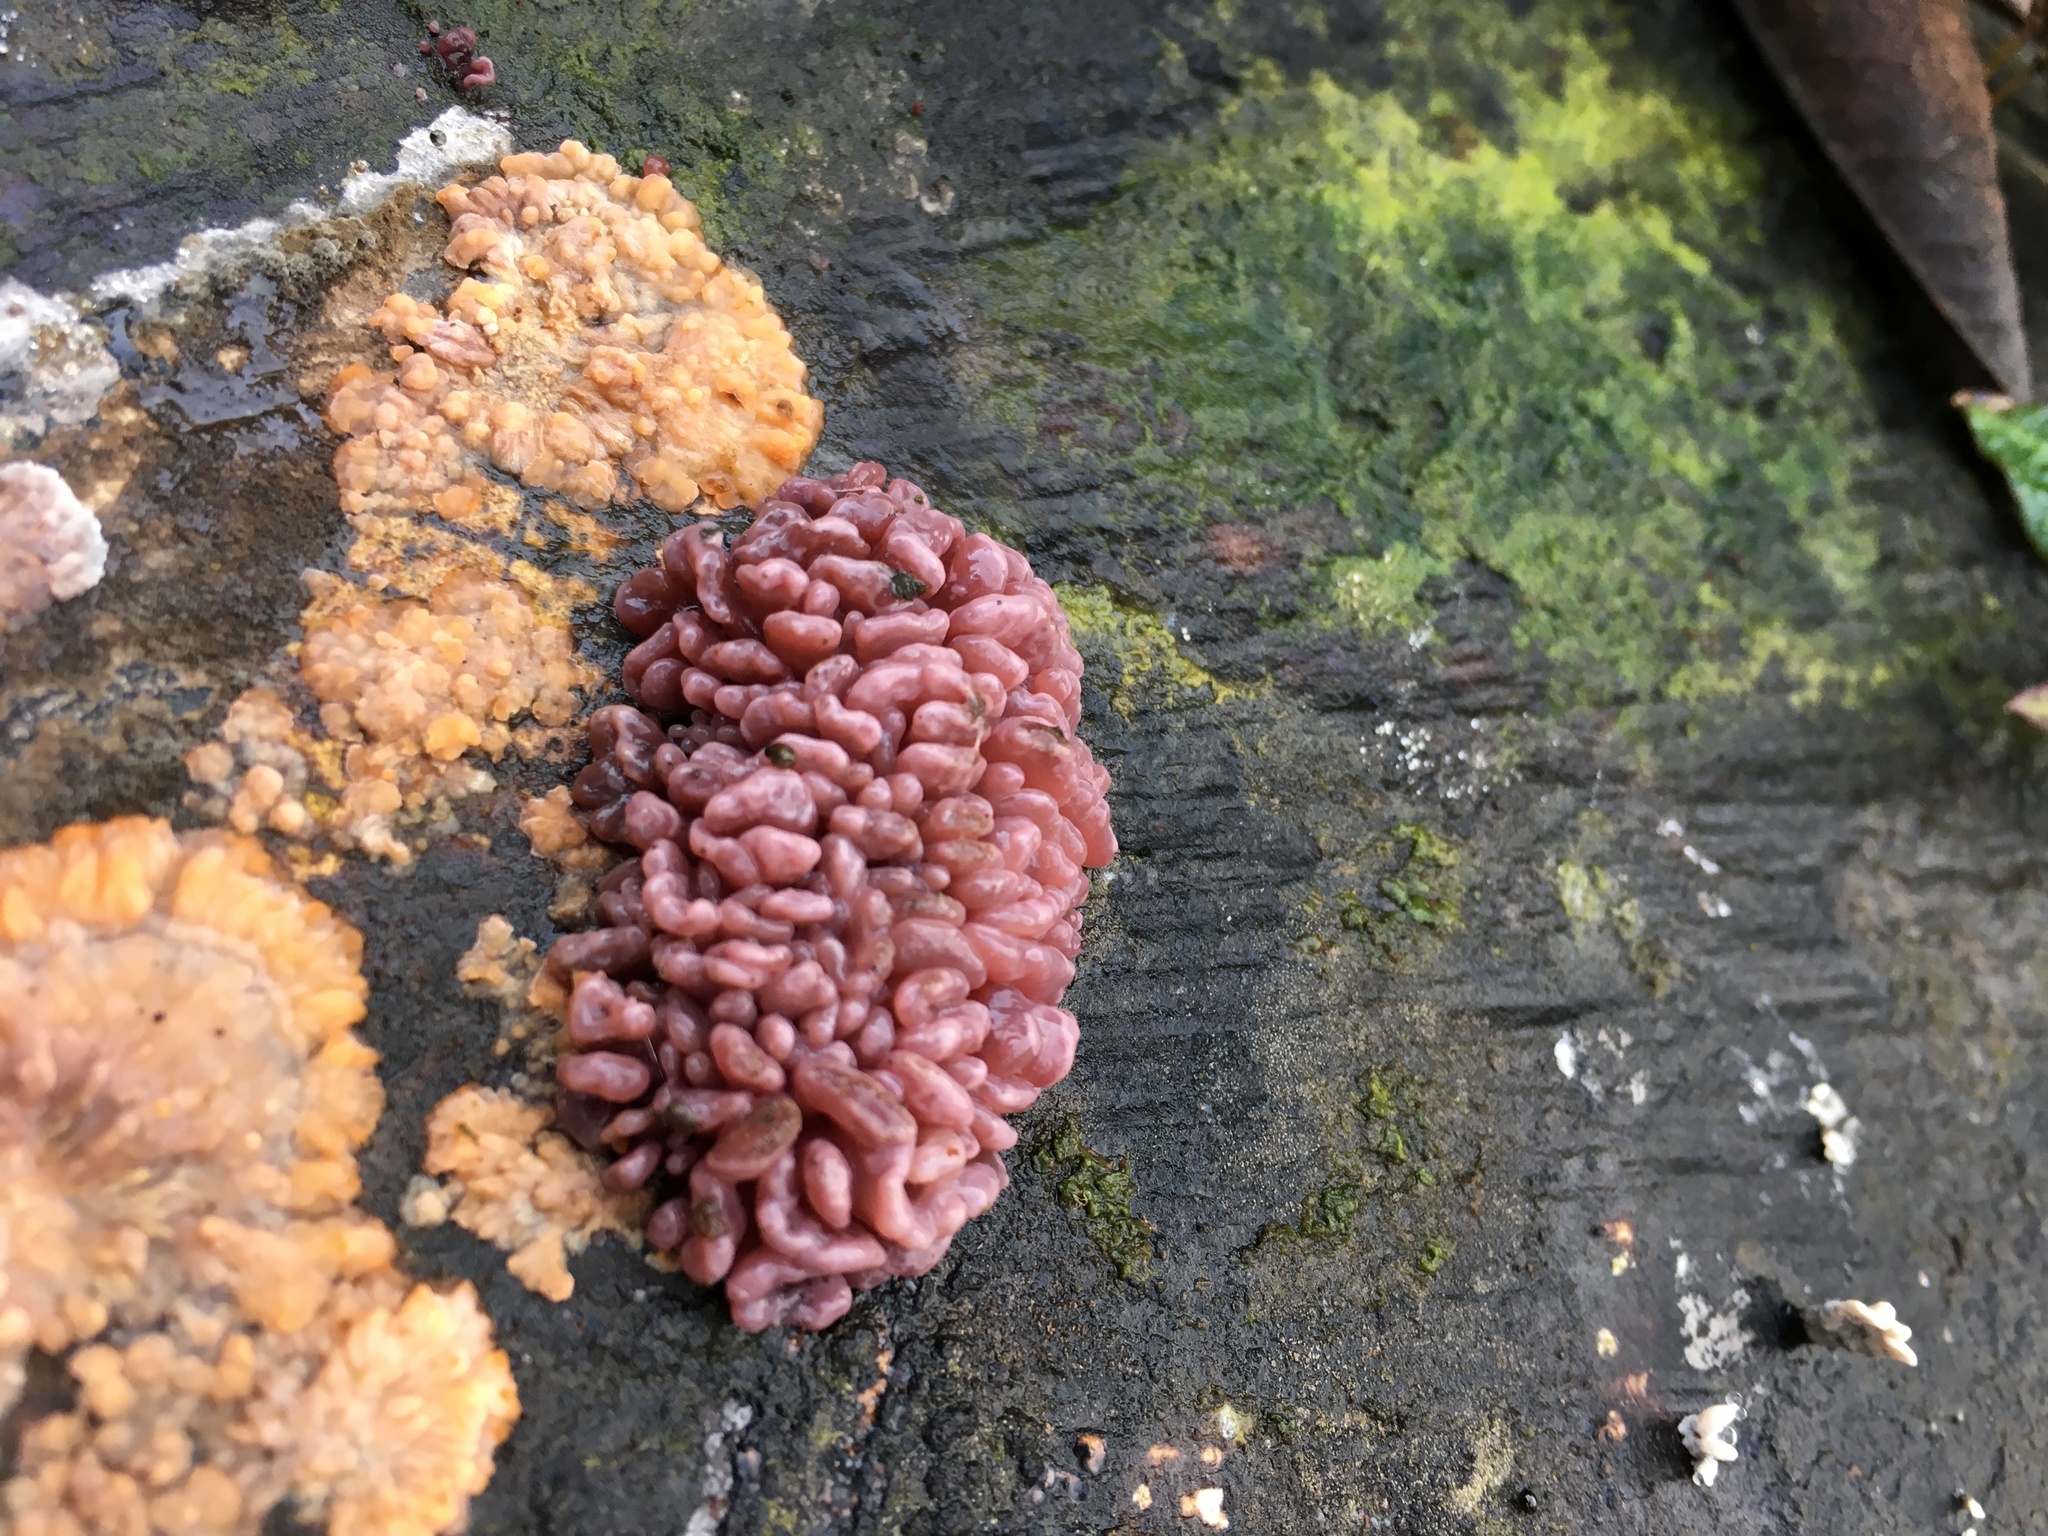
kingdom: Fungi
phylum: Ascomycota
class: Leotiomycetes
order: Helotiales
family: Gelatinodiscaceae
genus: Ascocoryne
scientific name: Ascocoryne sarcoides
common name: Purple jellydisc
